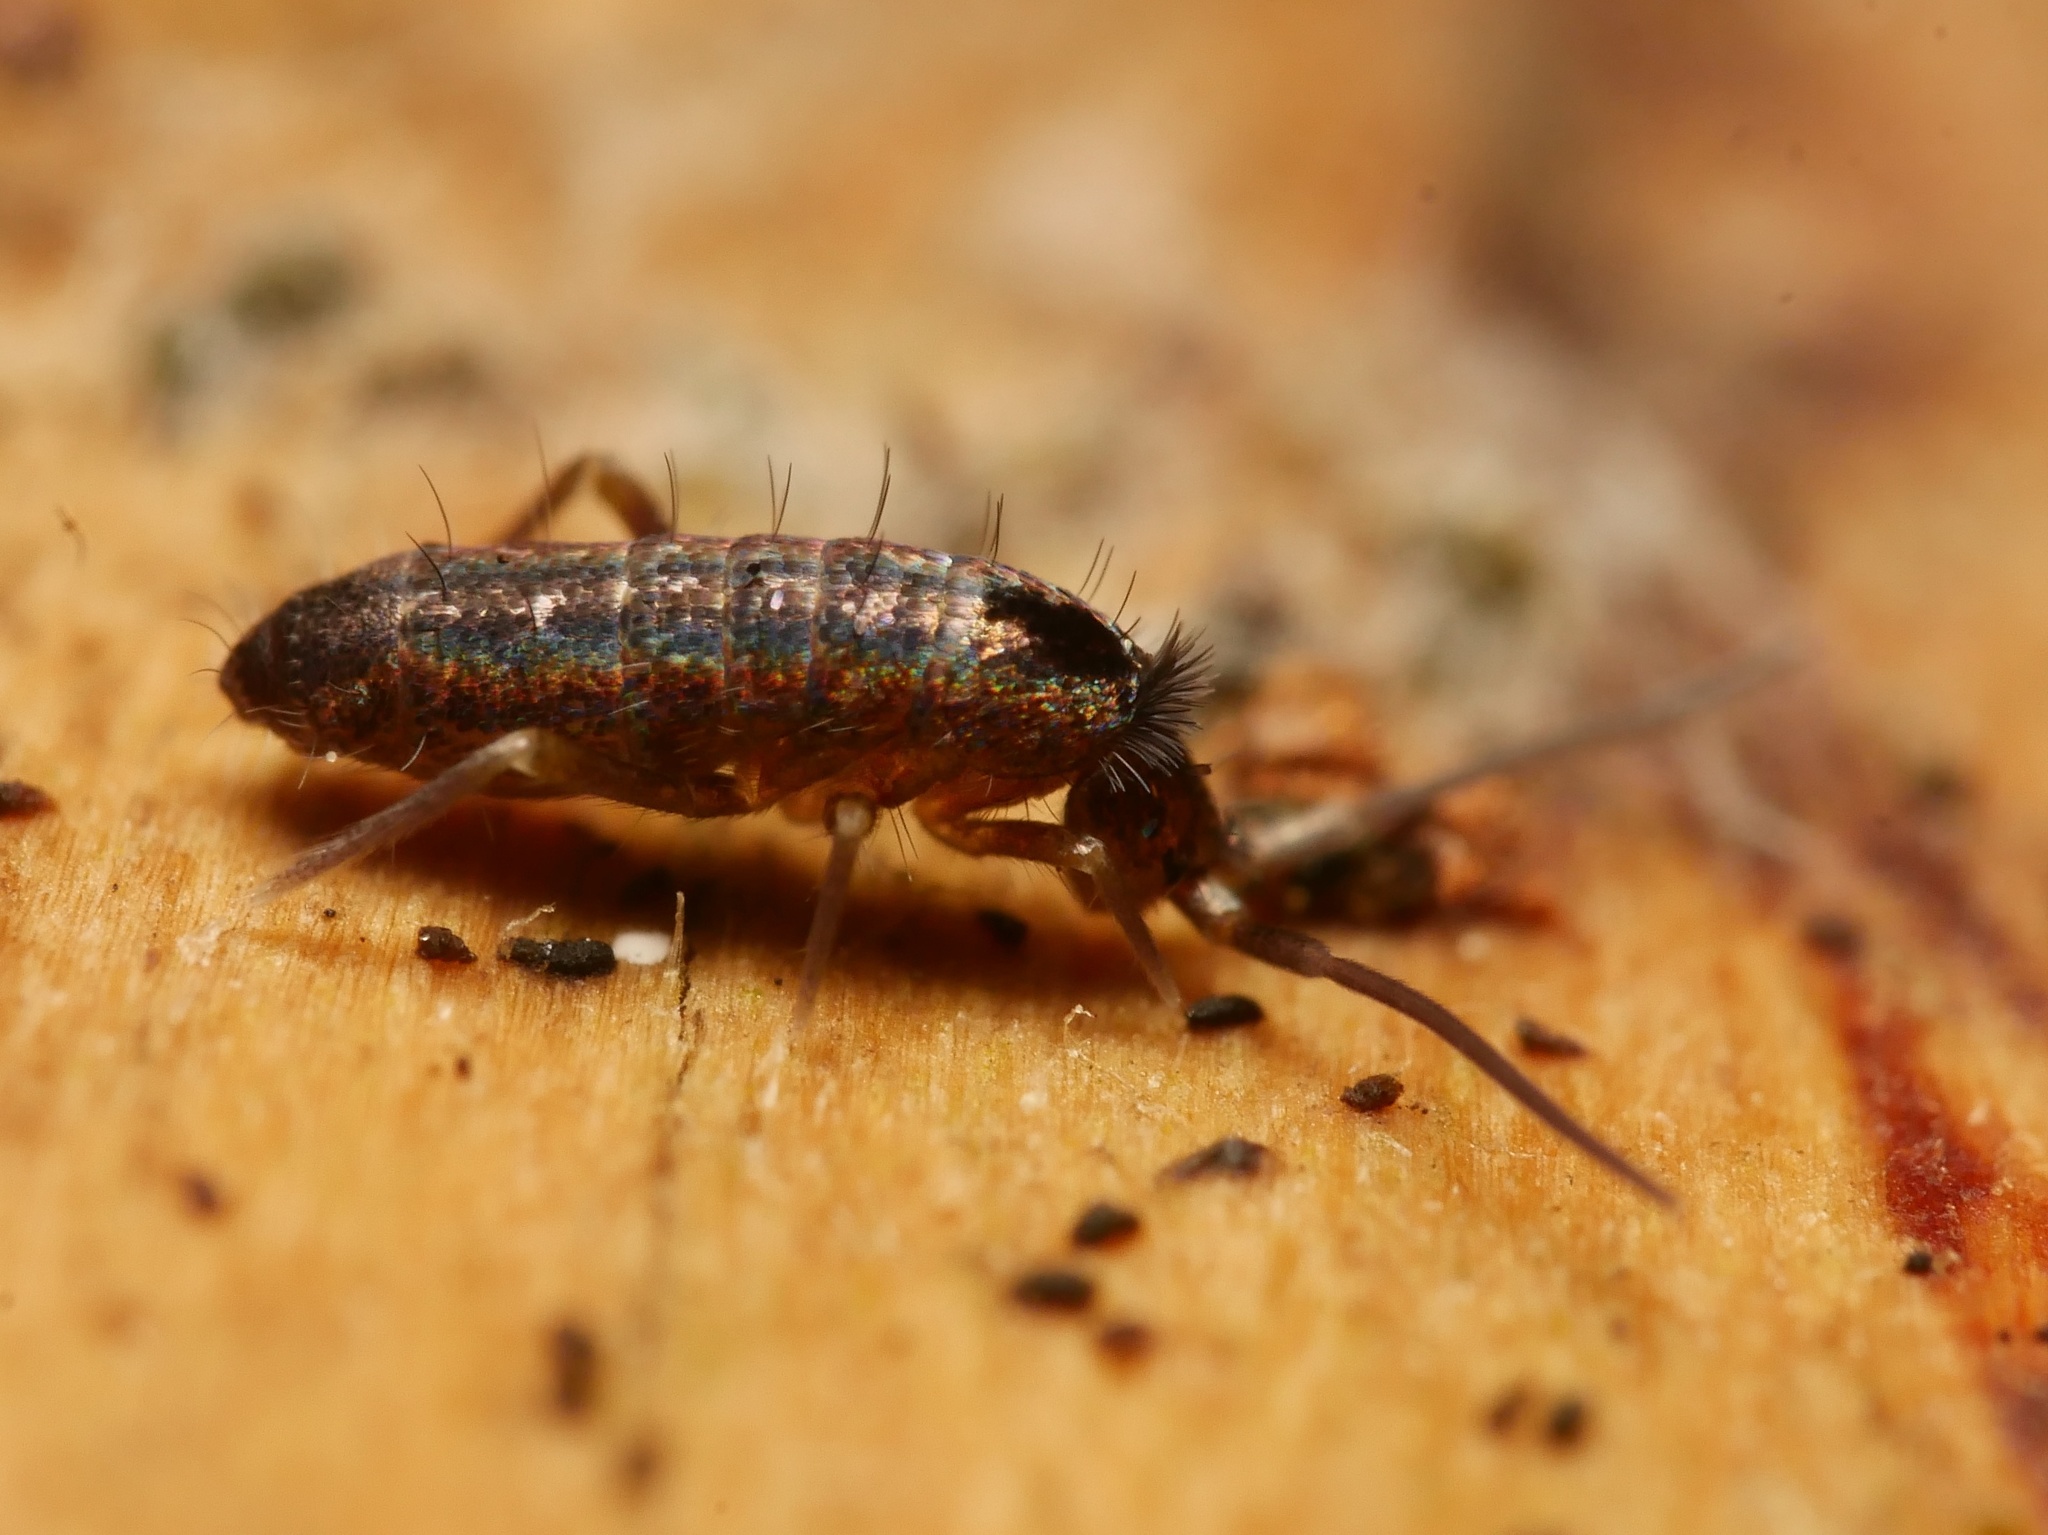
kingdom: Animalia
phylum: Arthropoda
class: Collembola
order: Entomobryomorpha
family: Tomoceridae
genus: Tomocerus
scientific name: Tomocerus vulgaris
